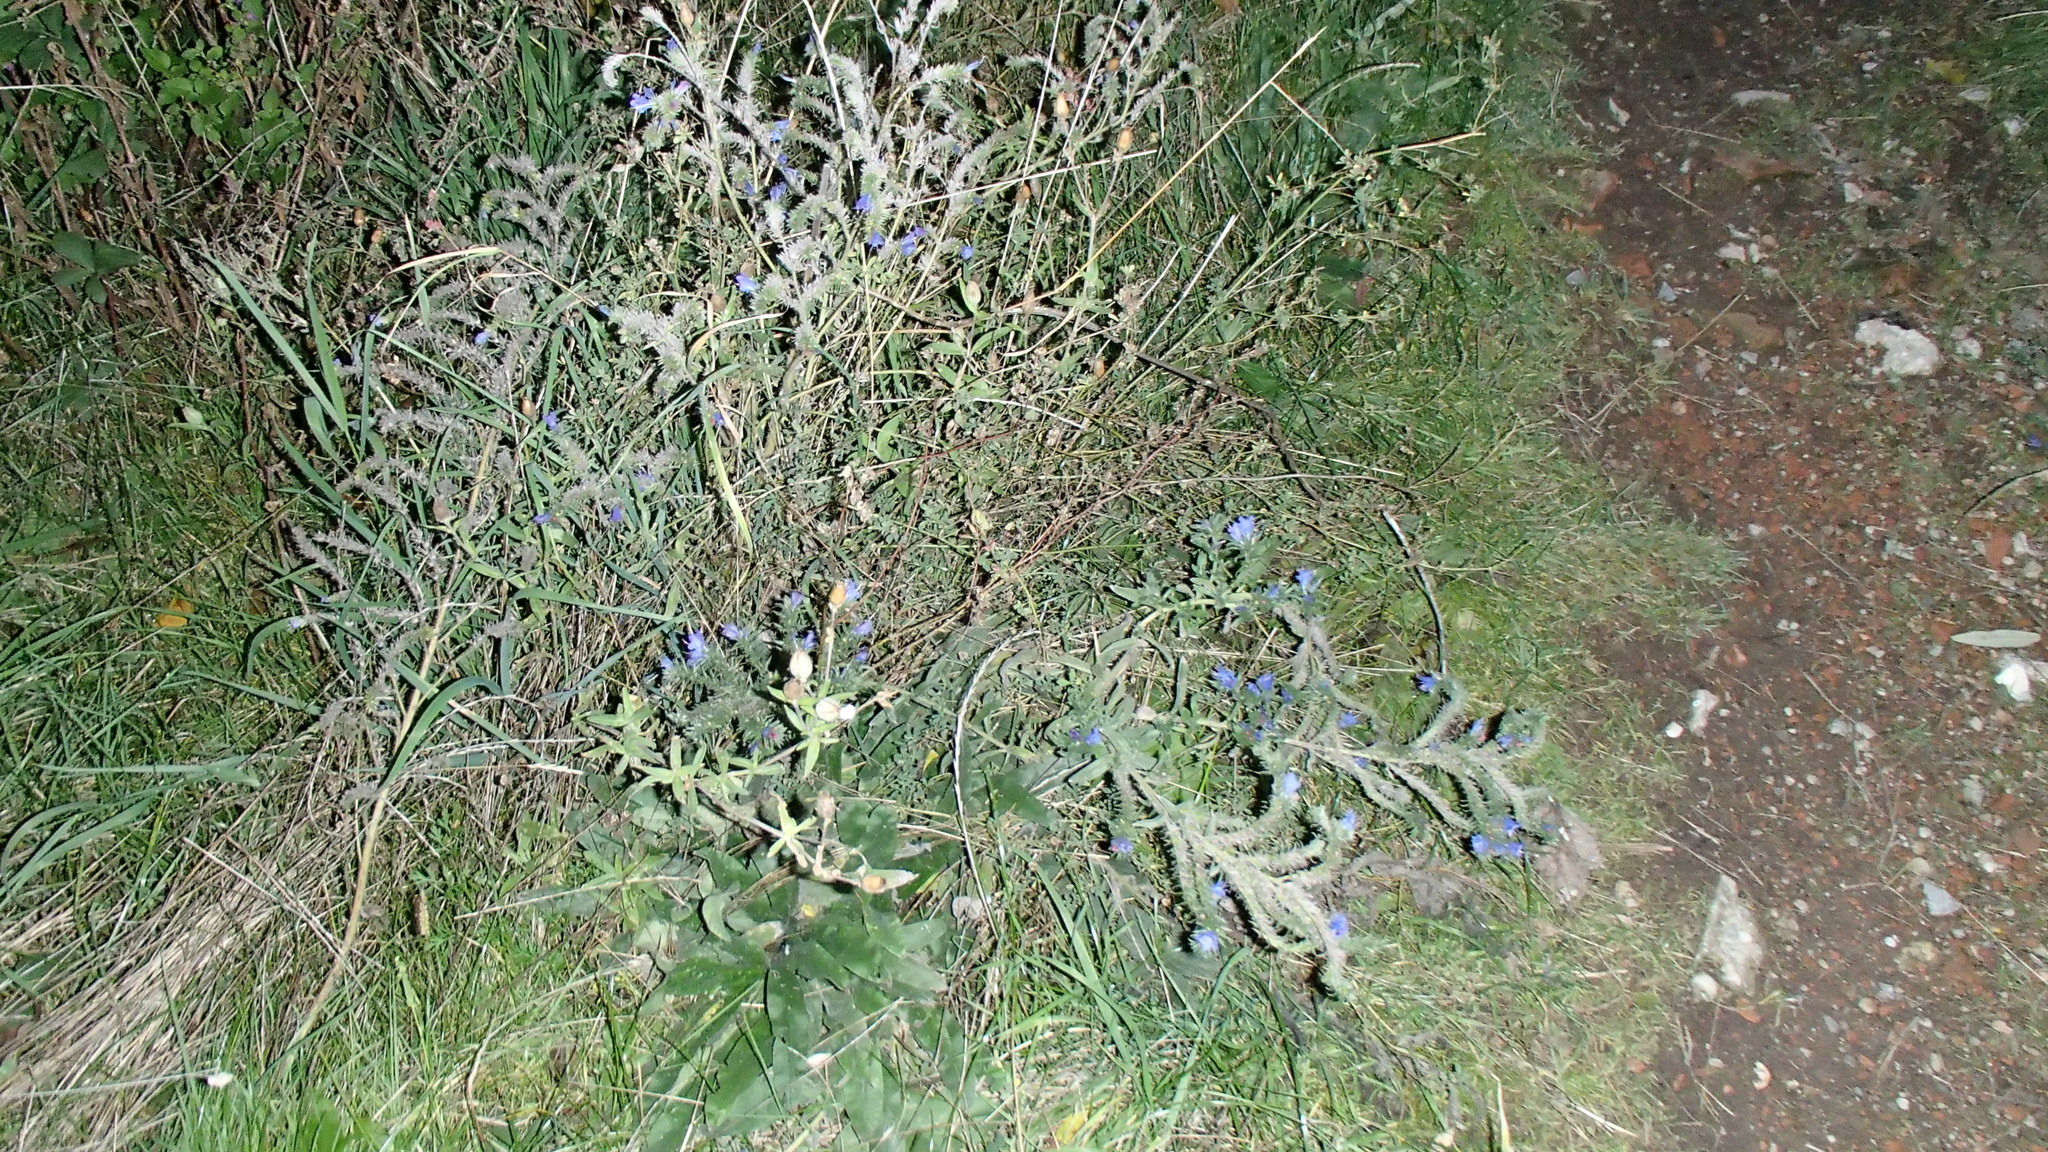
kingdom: Plantae
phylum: Tracheophyta
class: Magnoliopsida
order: Boraginales
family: Boraginaceae
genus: Echium
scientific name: Echium vulgare
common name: Common viper's bugloss
